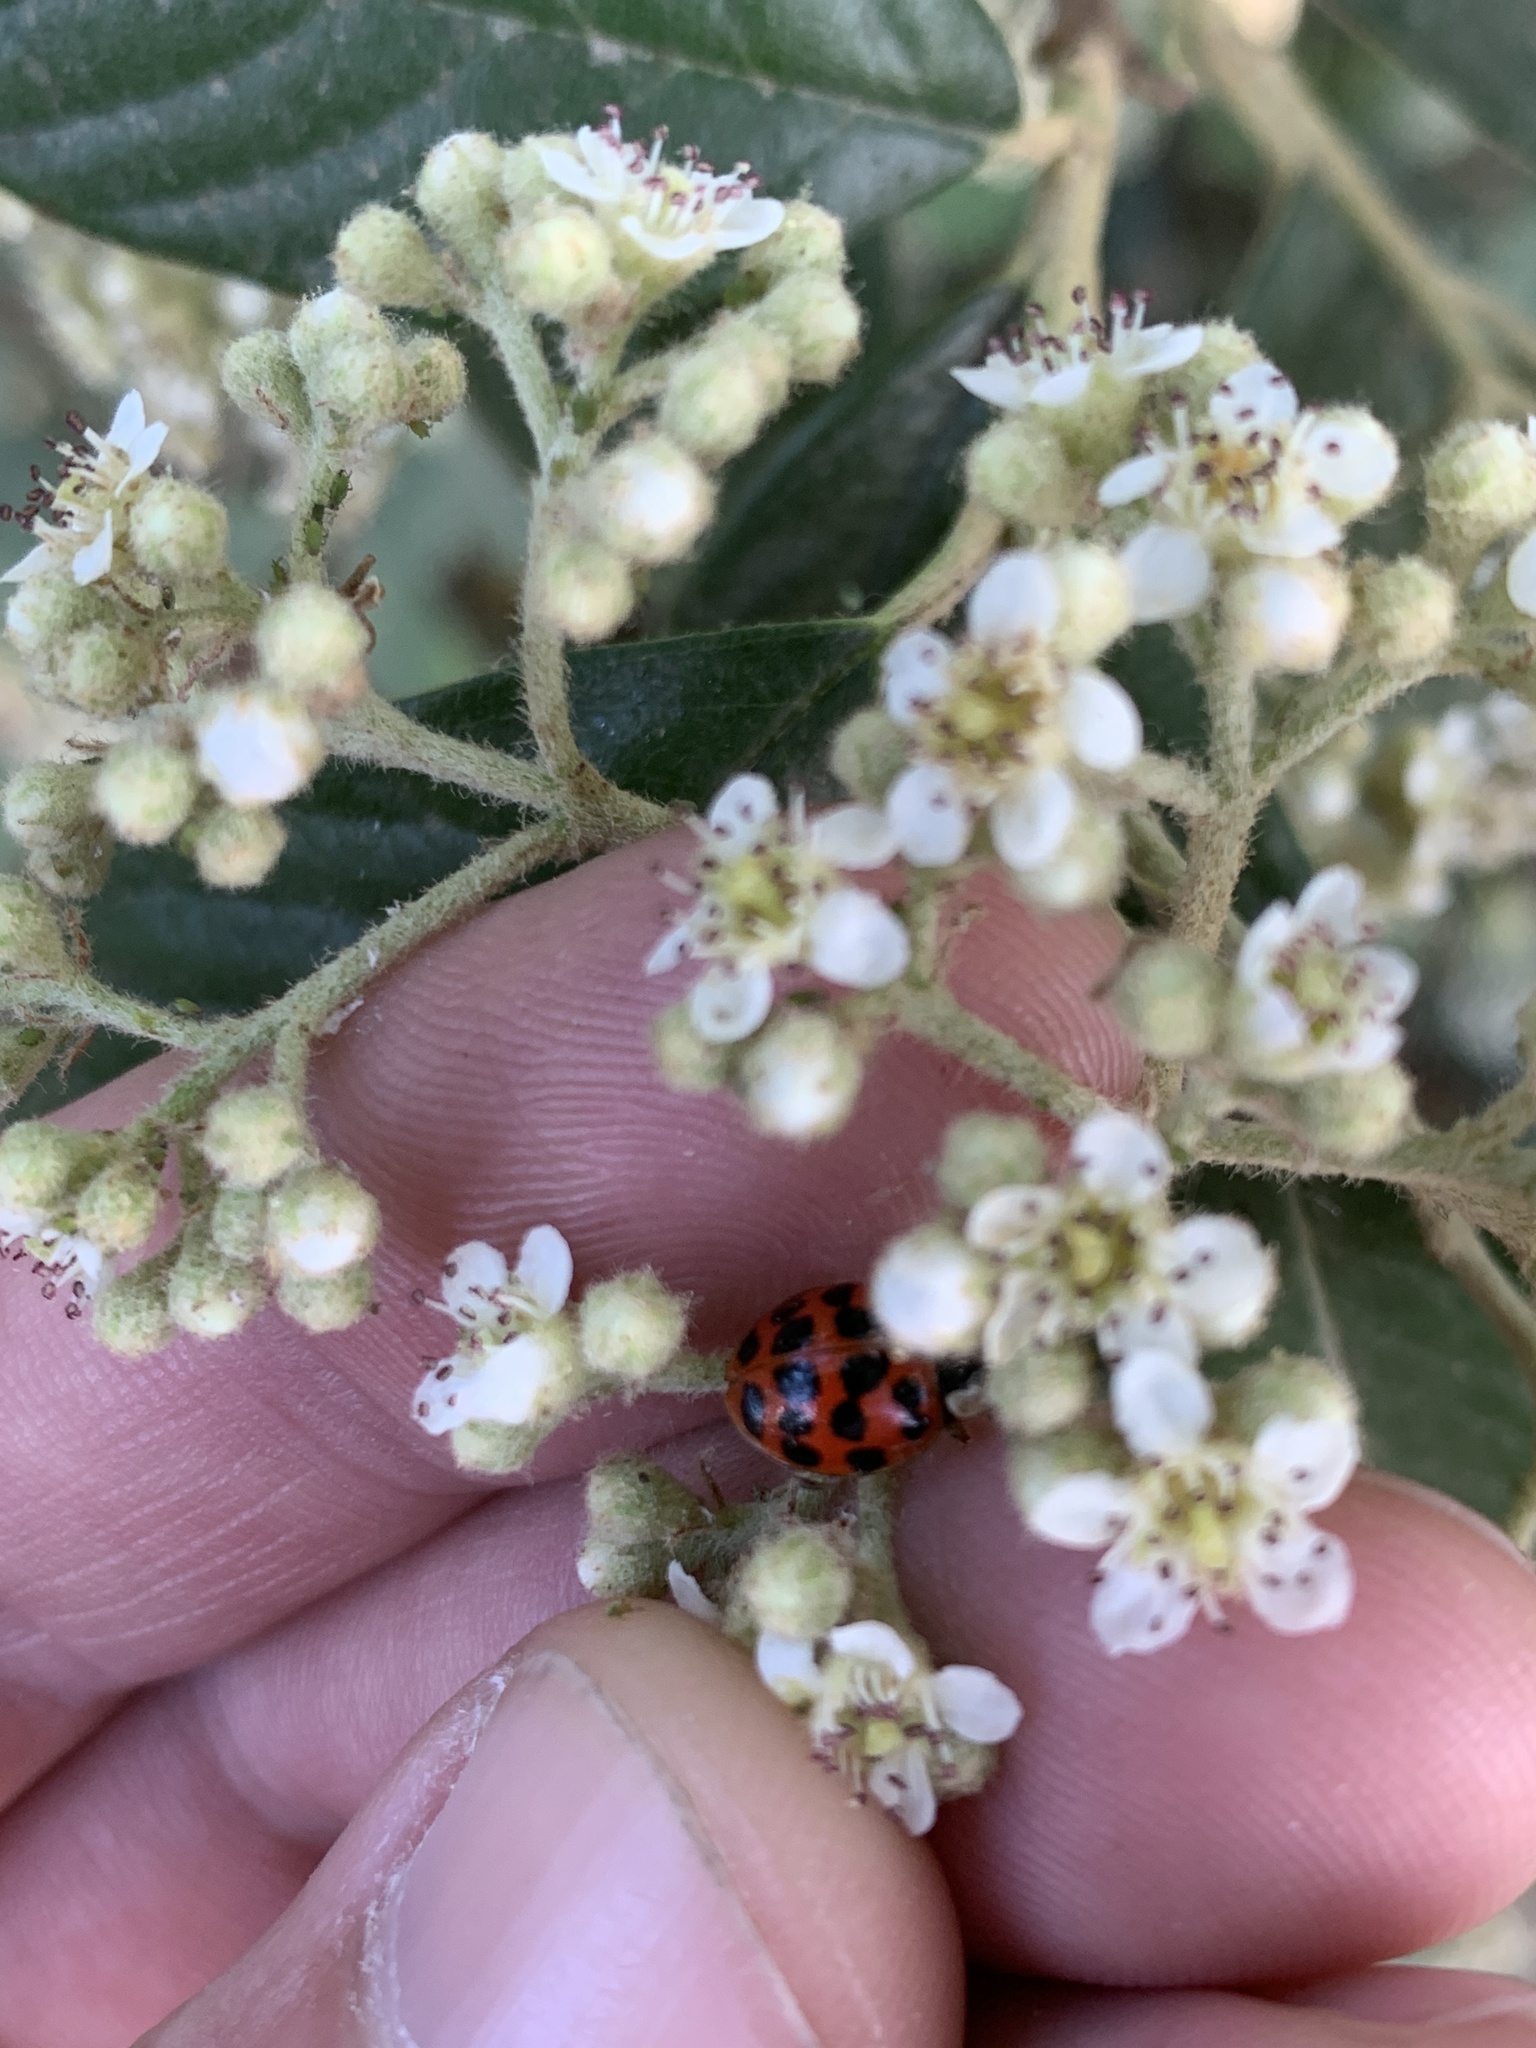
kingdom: Animalia
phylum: Arthropoda
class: Insecta
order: Coleoptera
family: Coccinellidae
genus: Harmonia
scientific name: Harmonia axyridis
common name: Harlequin ladybird
